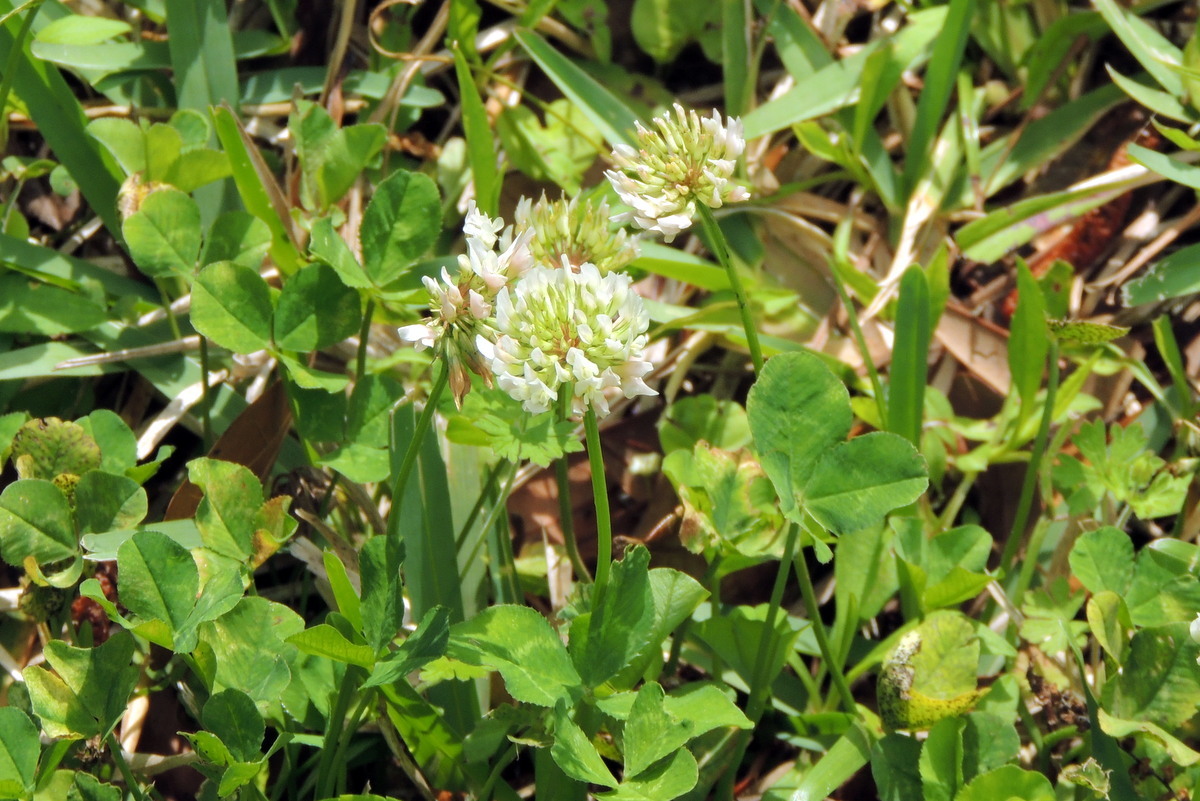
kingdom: Plantae
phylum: Tracheophyta
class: Magnoliopsida
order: Fabales
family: Fabaceae
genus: Trifolium
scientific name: Trifolium repens
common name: White clover
